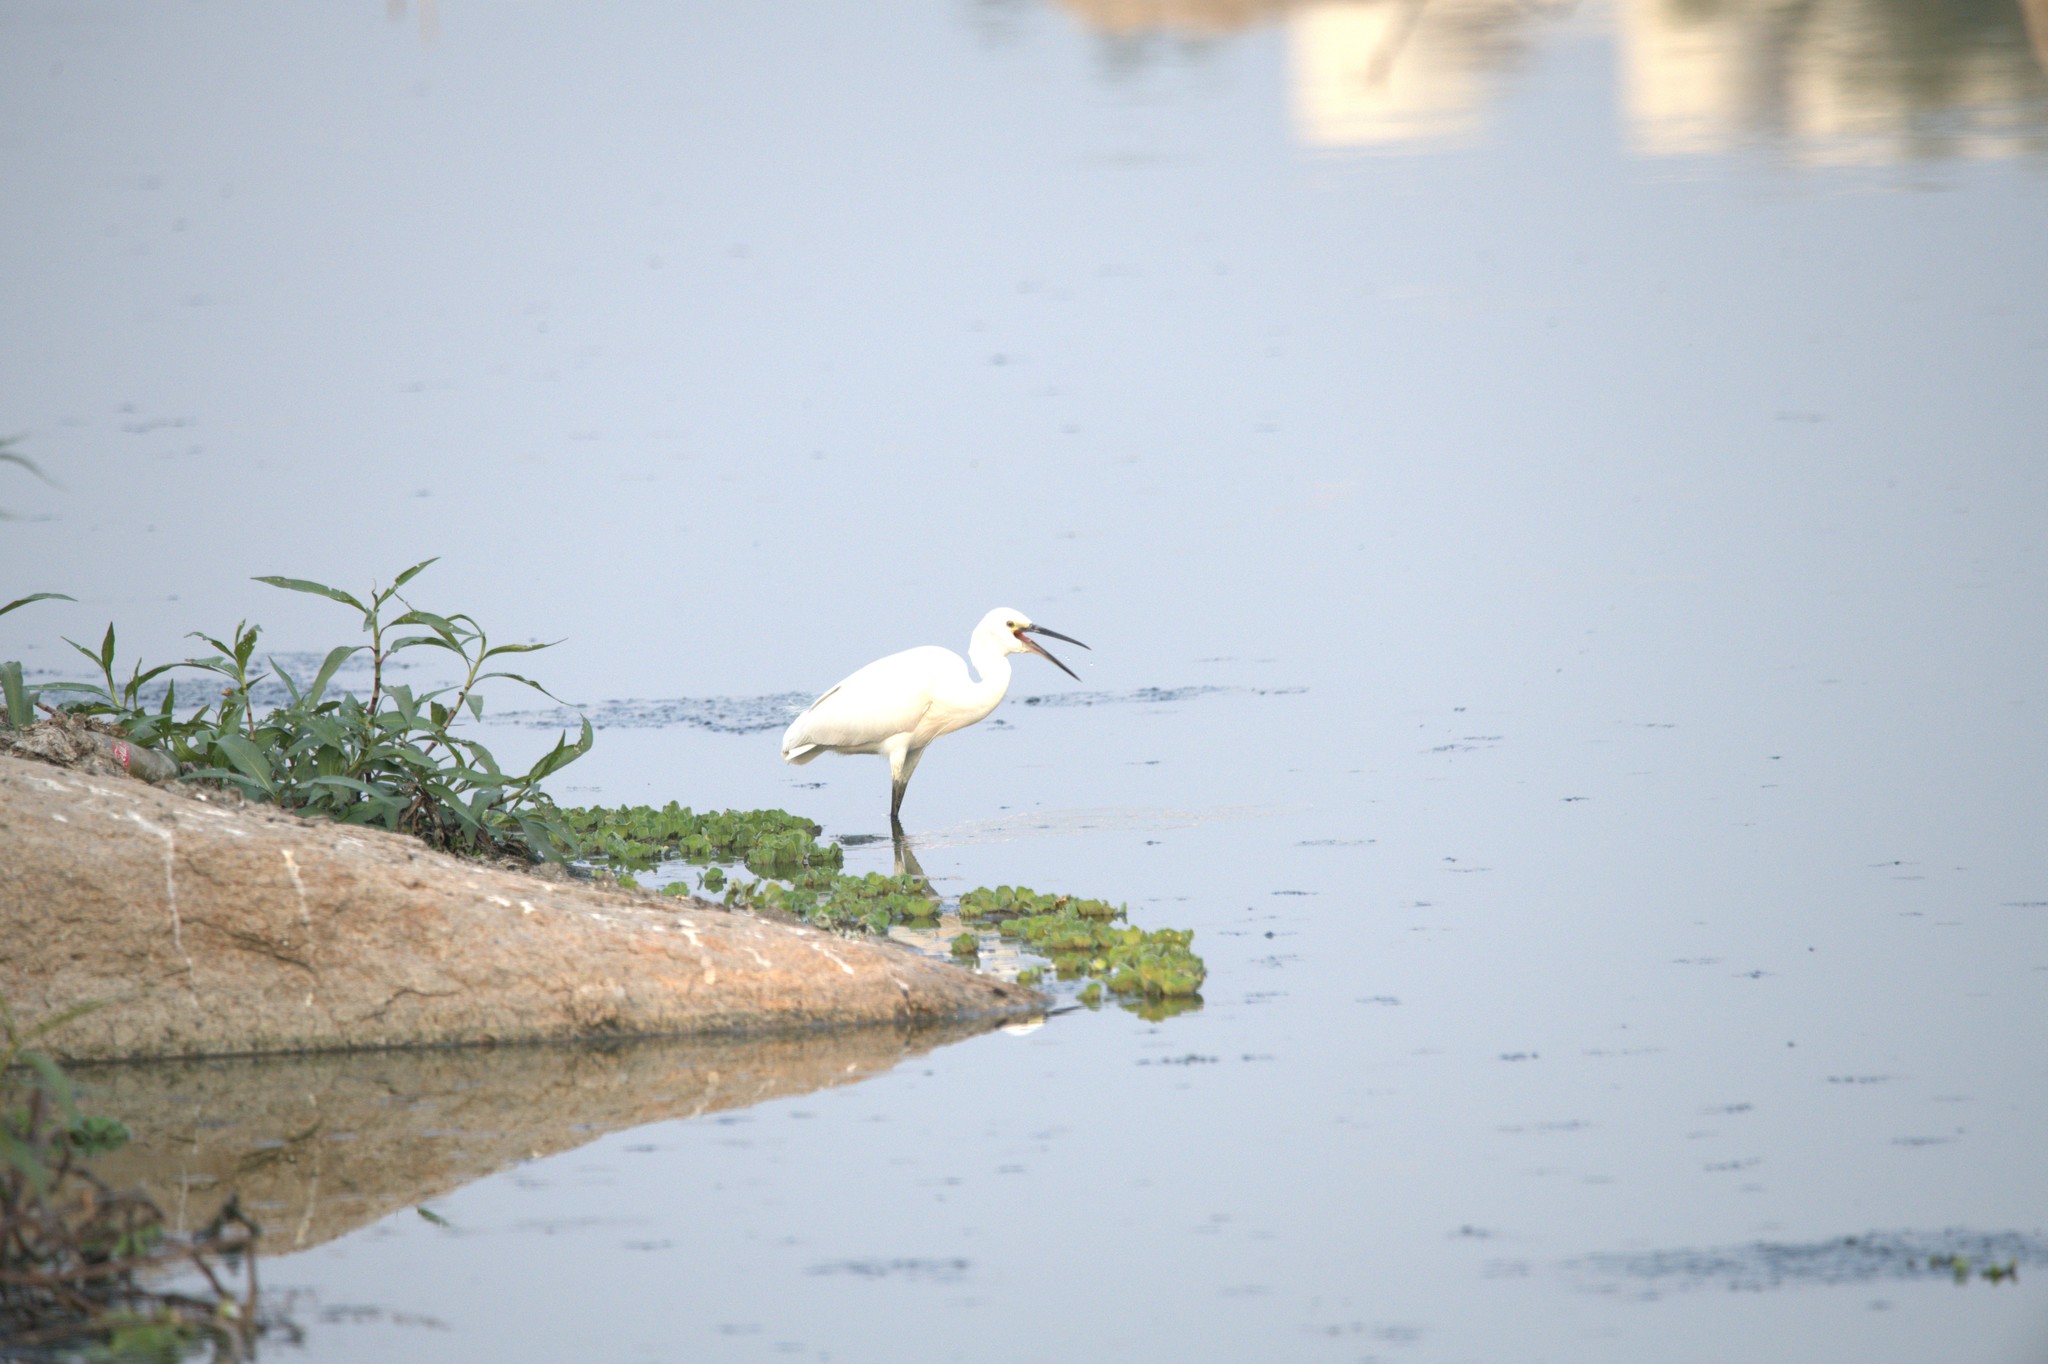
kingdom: Animalia
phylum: Chordata
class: Aves
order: Pelecaniformes
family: Ardeidae
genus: Egretta
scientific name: Egretta garzetta
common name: Little egret
